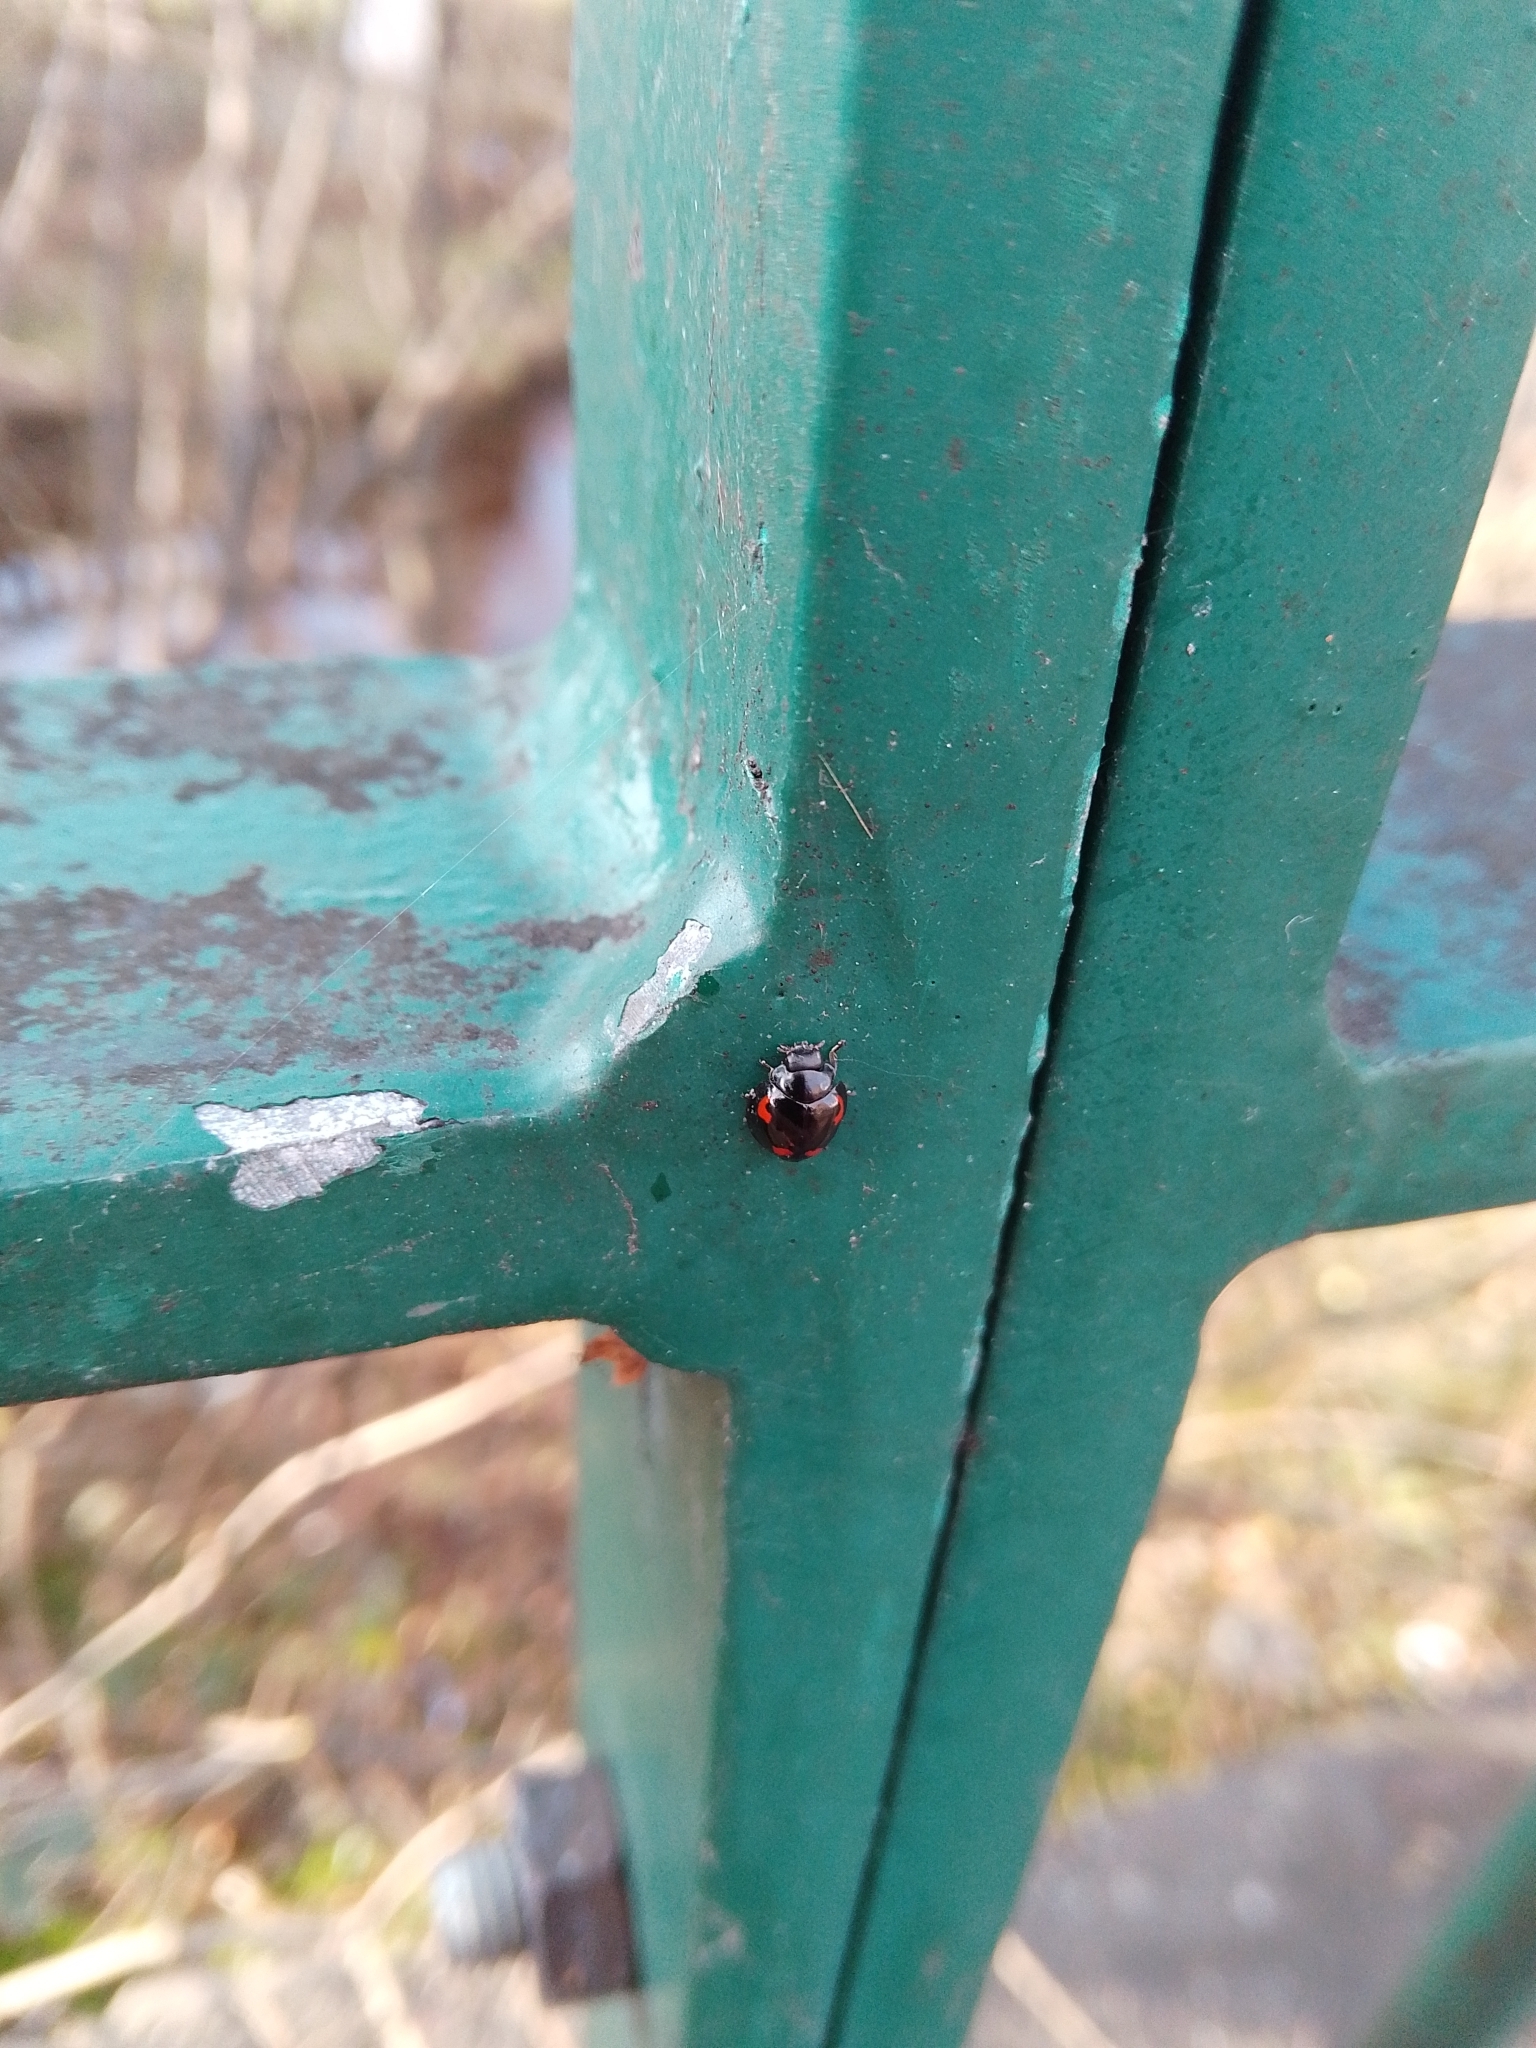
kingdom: Animalia
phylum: Arthropoda
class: Insecta
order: Coleoptera
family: Coccinellidae
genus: Brumus
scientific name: Brumus quadripustulatus
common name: Ladybird beetle
